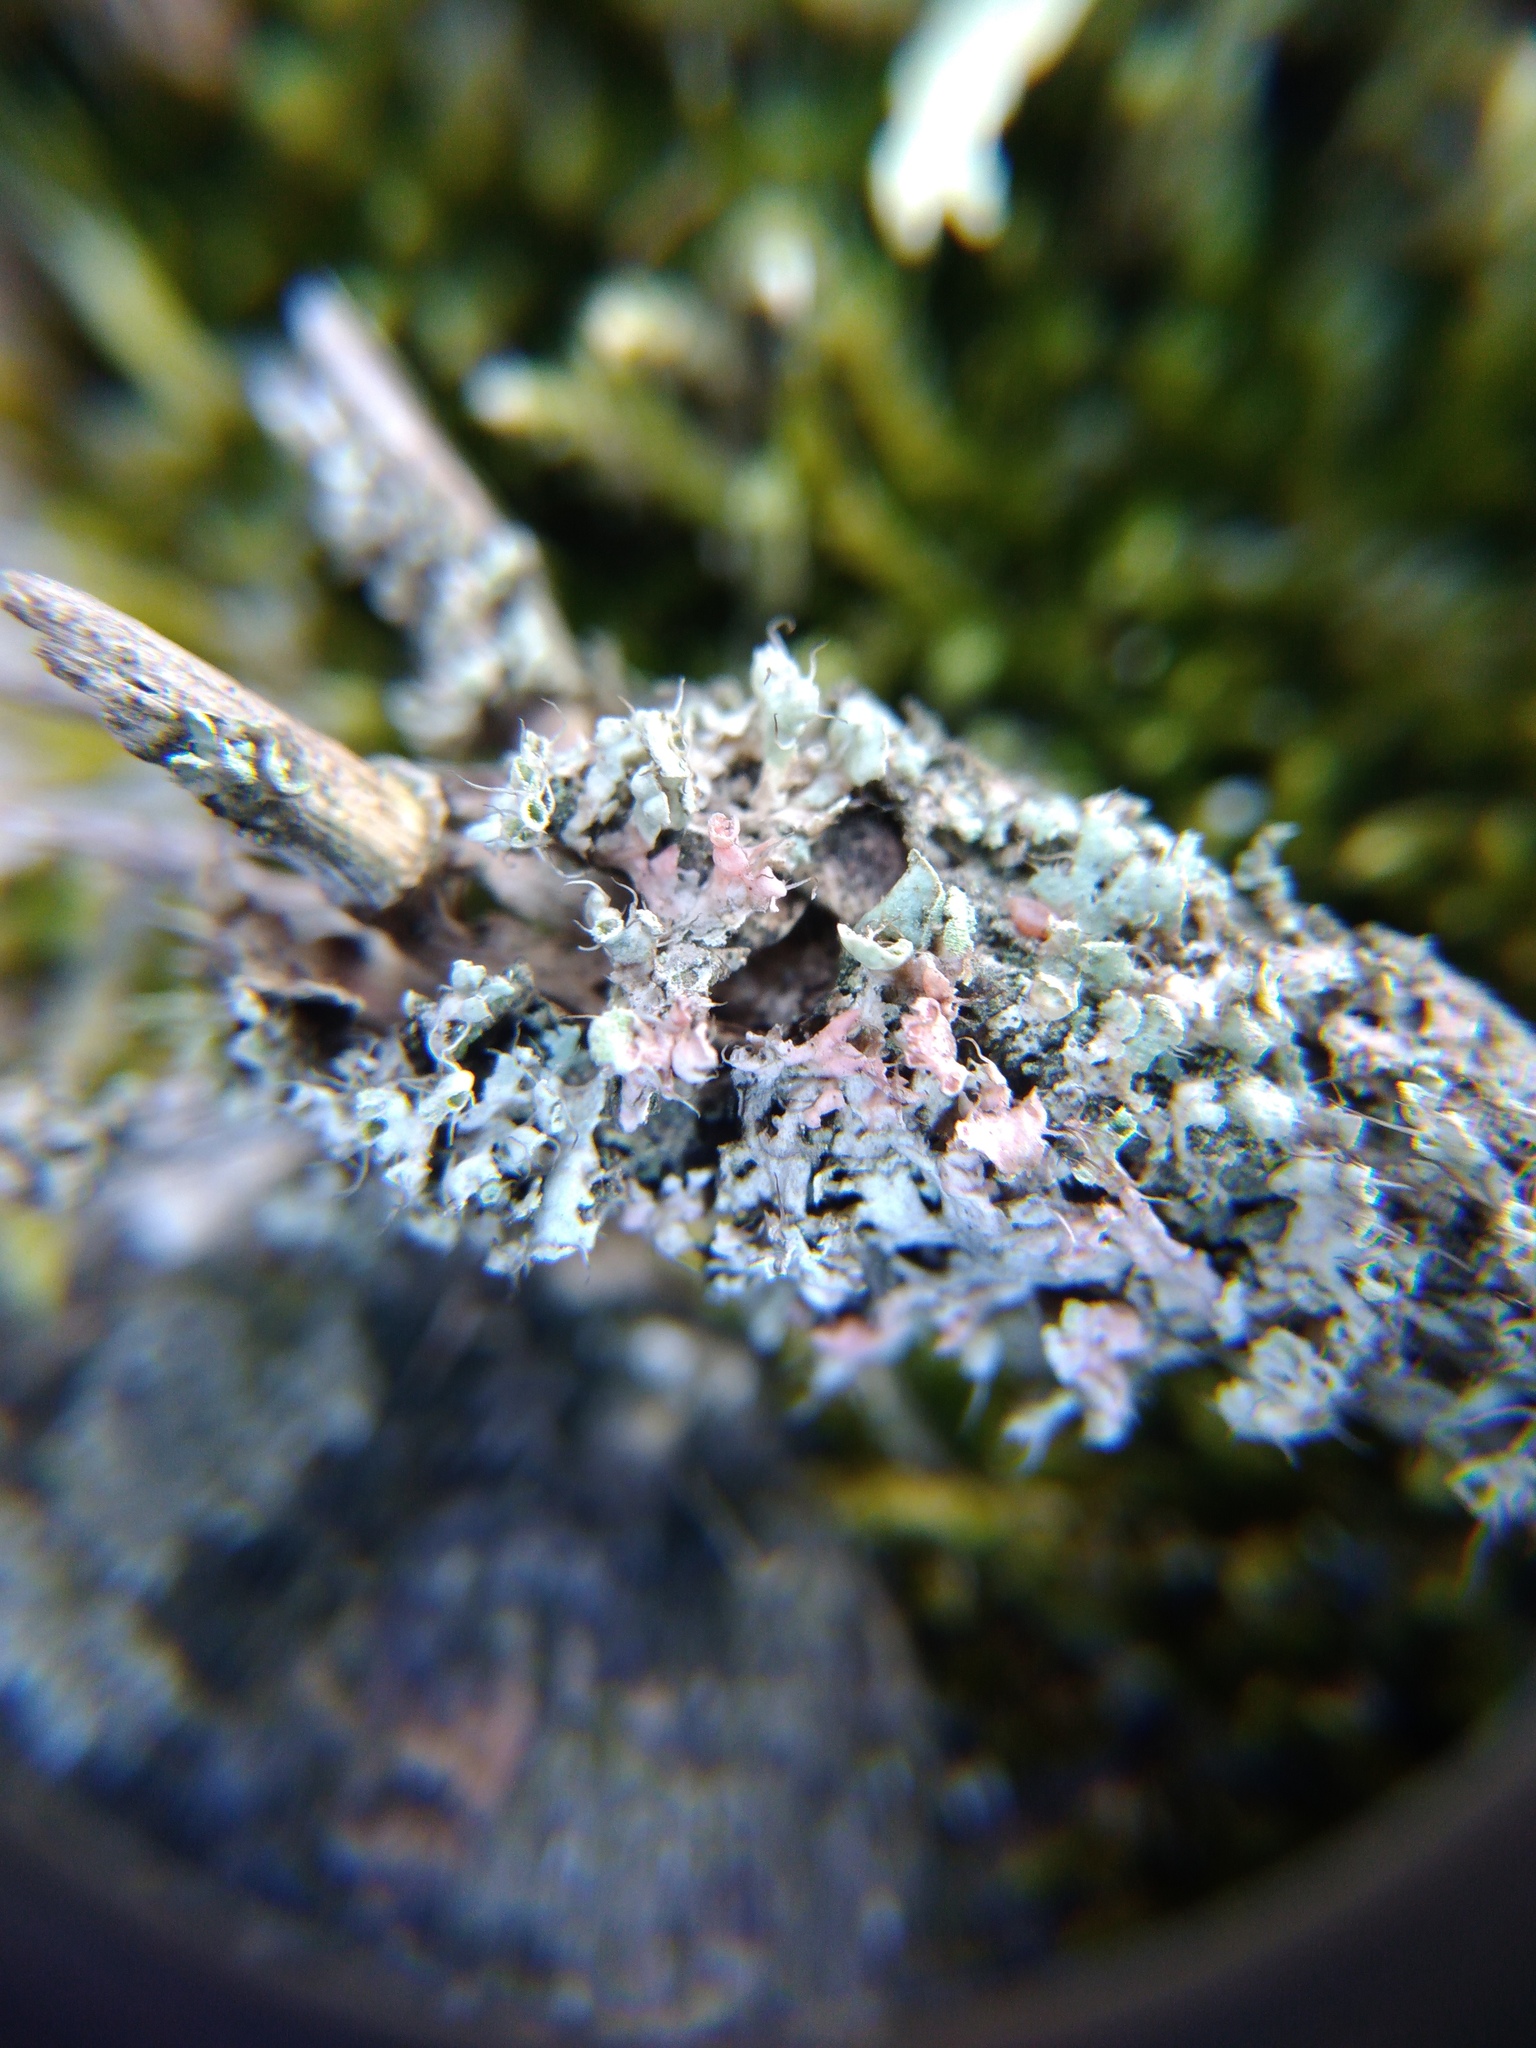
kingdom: Fungi
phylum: Basidiomycota
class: Agaricomycetes
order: Corticiales
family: Corticiaceae
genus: Laetisaria
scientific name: Laetisaria lichenicola
